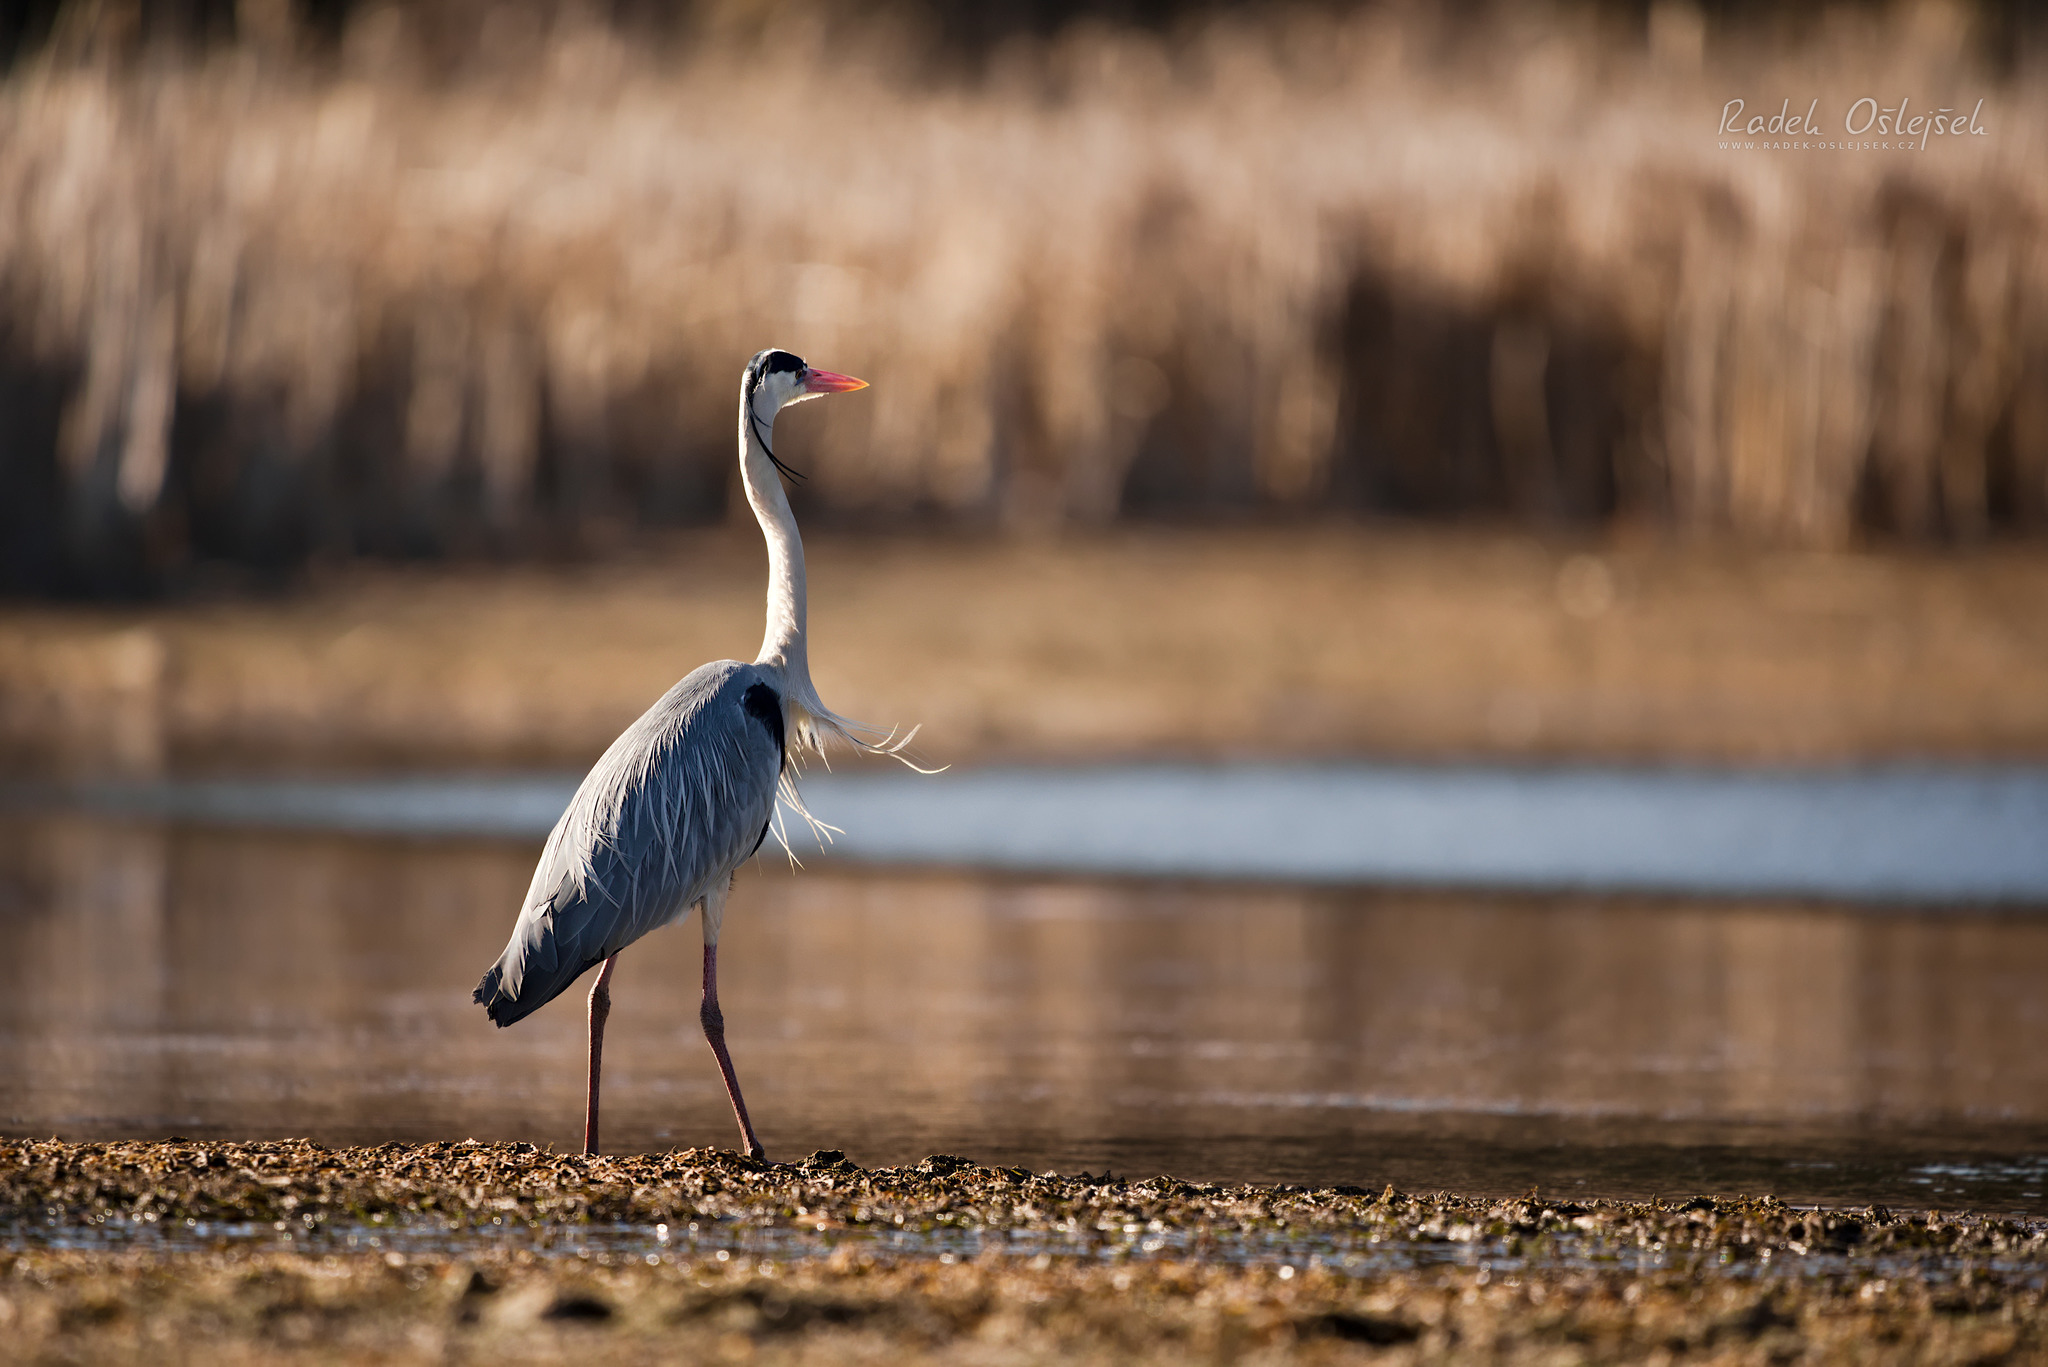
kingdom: Animalia
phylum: Chordata
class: Aves
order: Pelecaniformes
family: Ardeidae
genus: Ardea
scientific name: Ardea cinerea
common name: Grey heron
